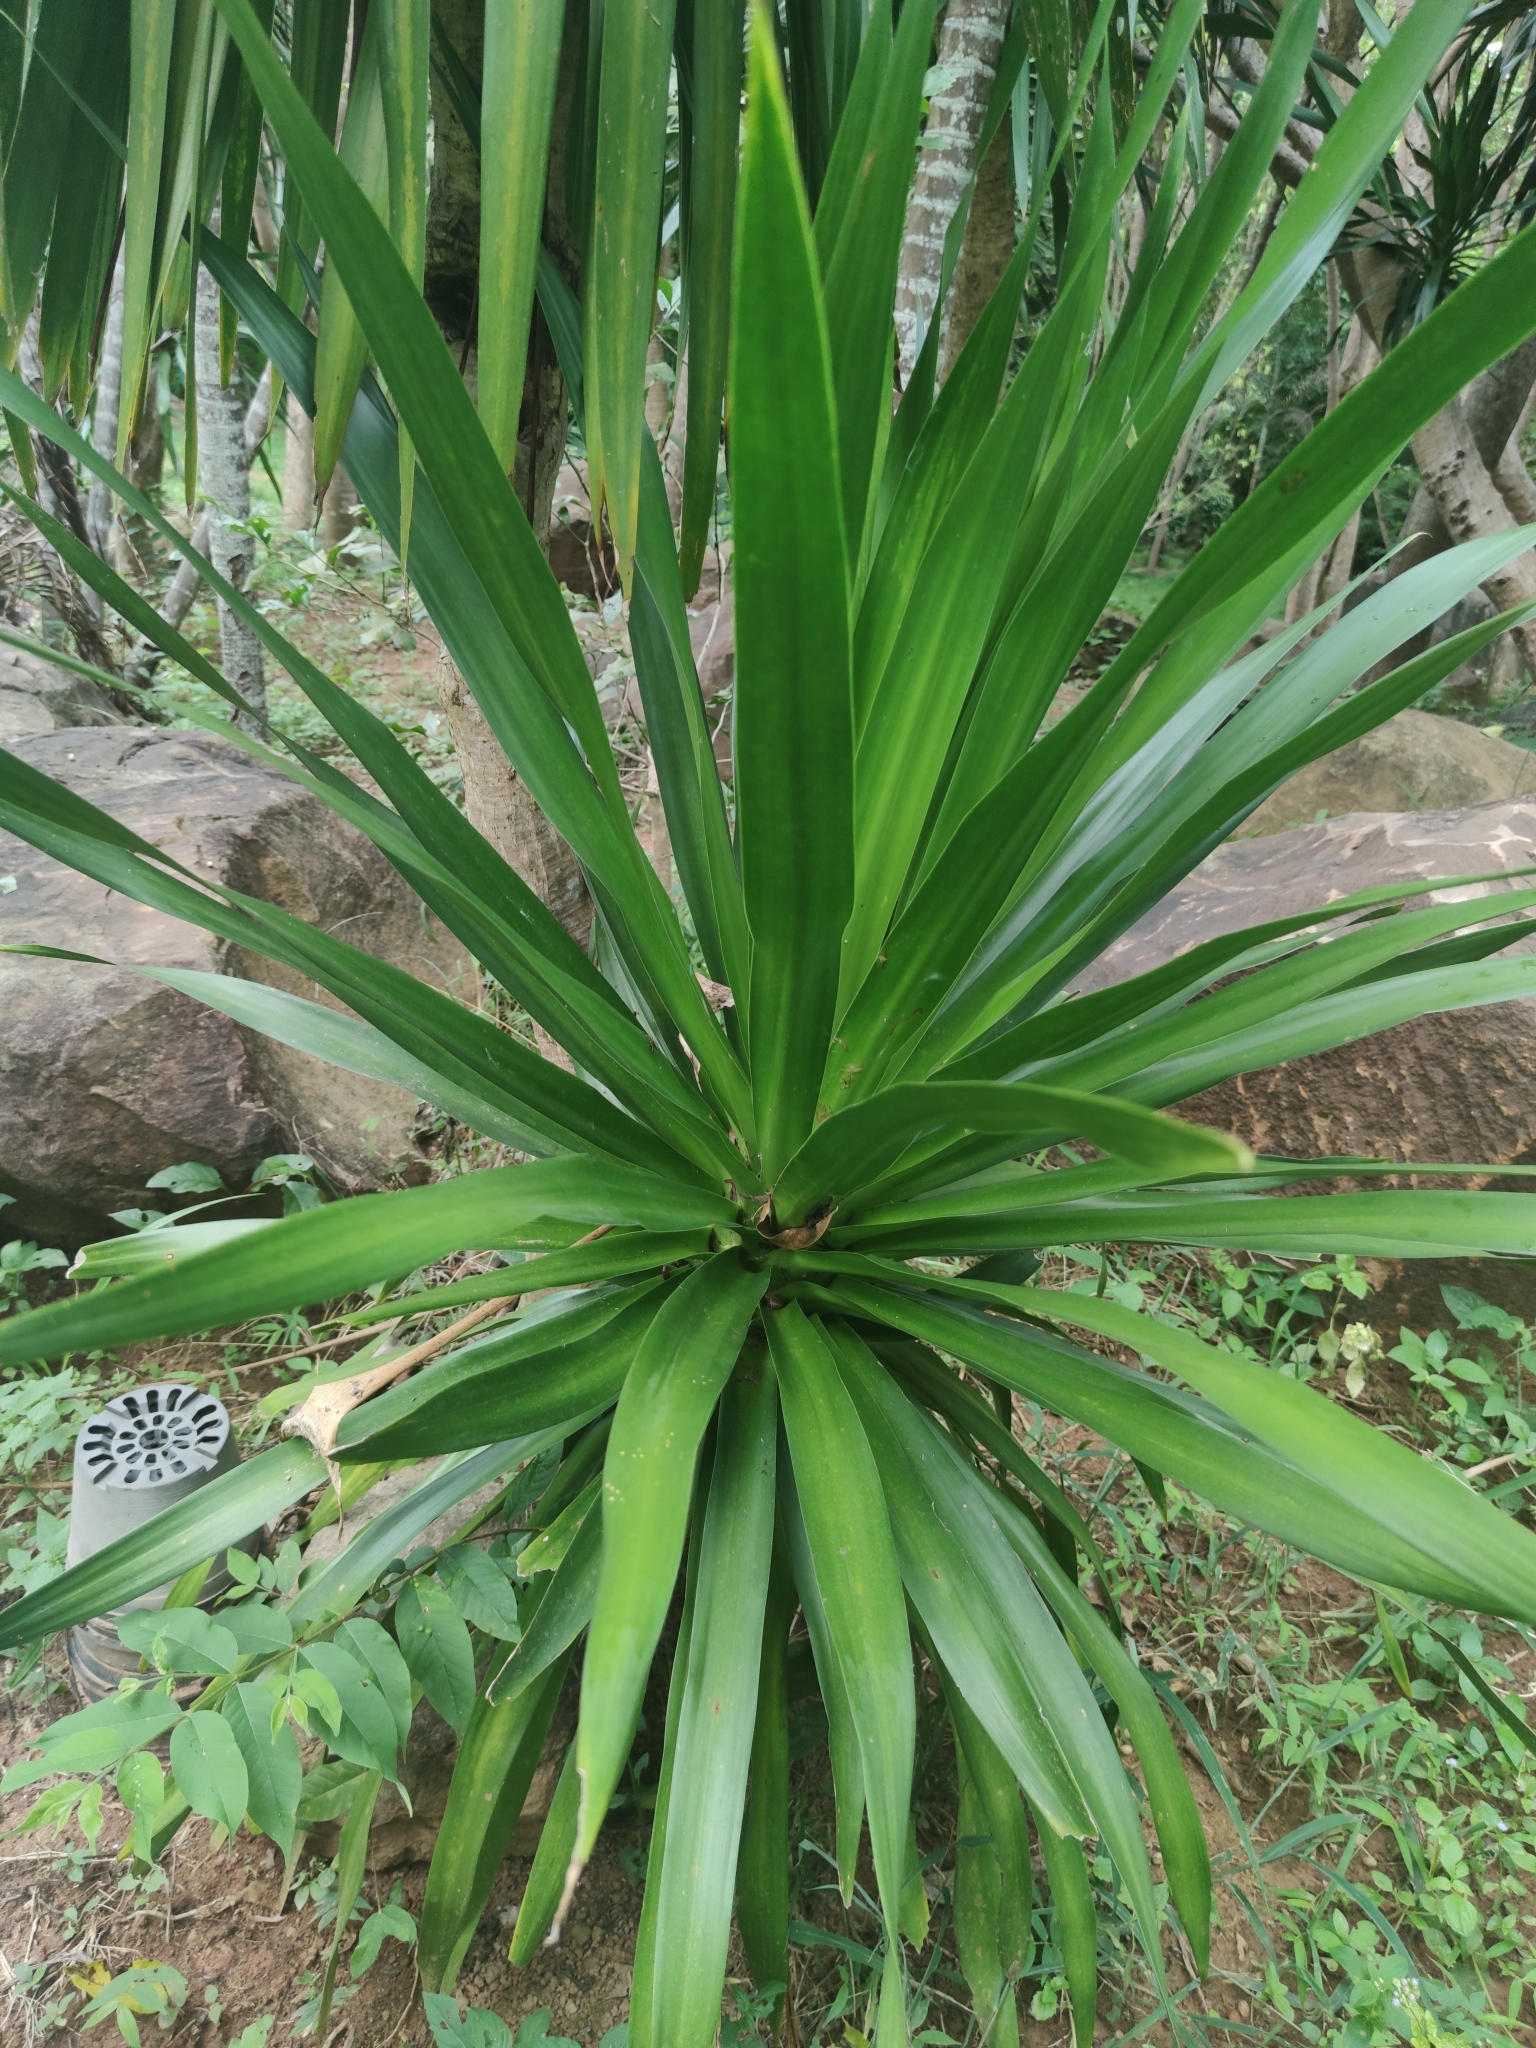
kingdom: Plantae
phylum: Tracheophyta
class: Liliopsida
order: Asparagales
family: Asparagaceae
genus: Dracaena
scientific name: Dracaena cochinchinensis
